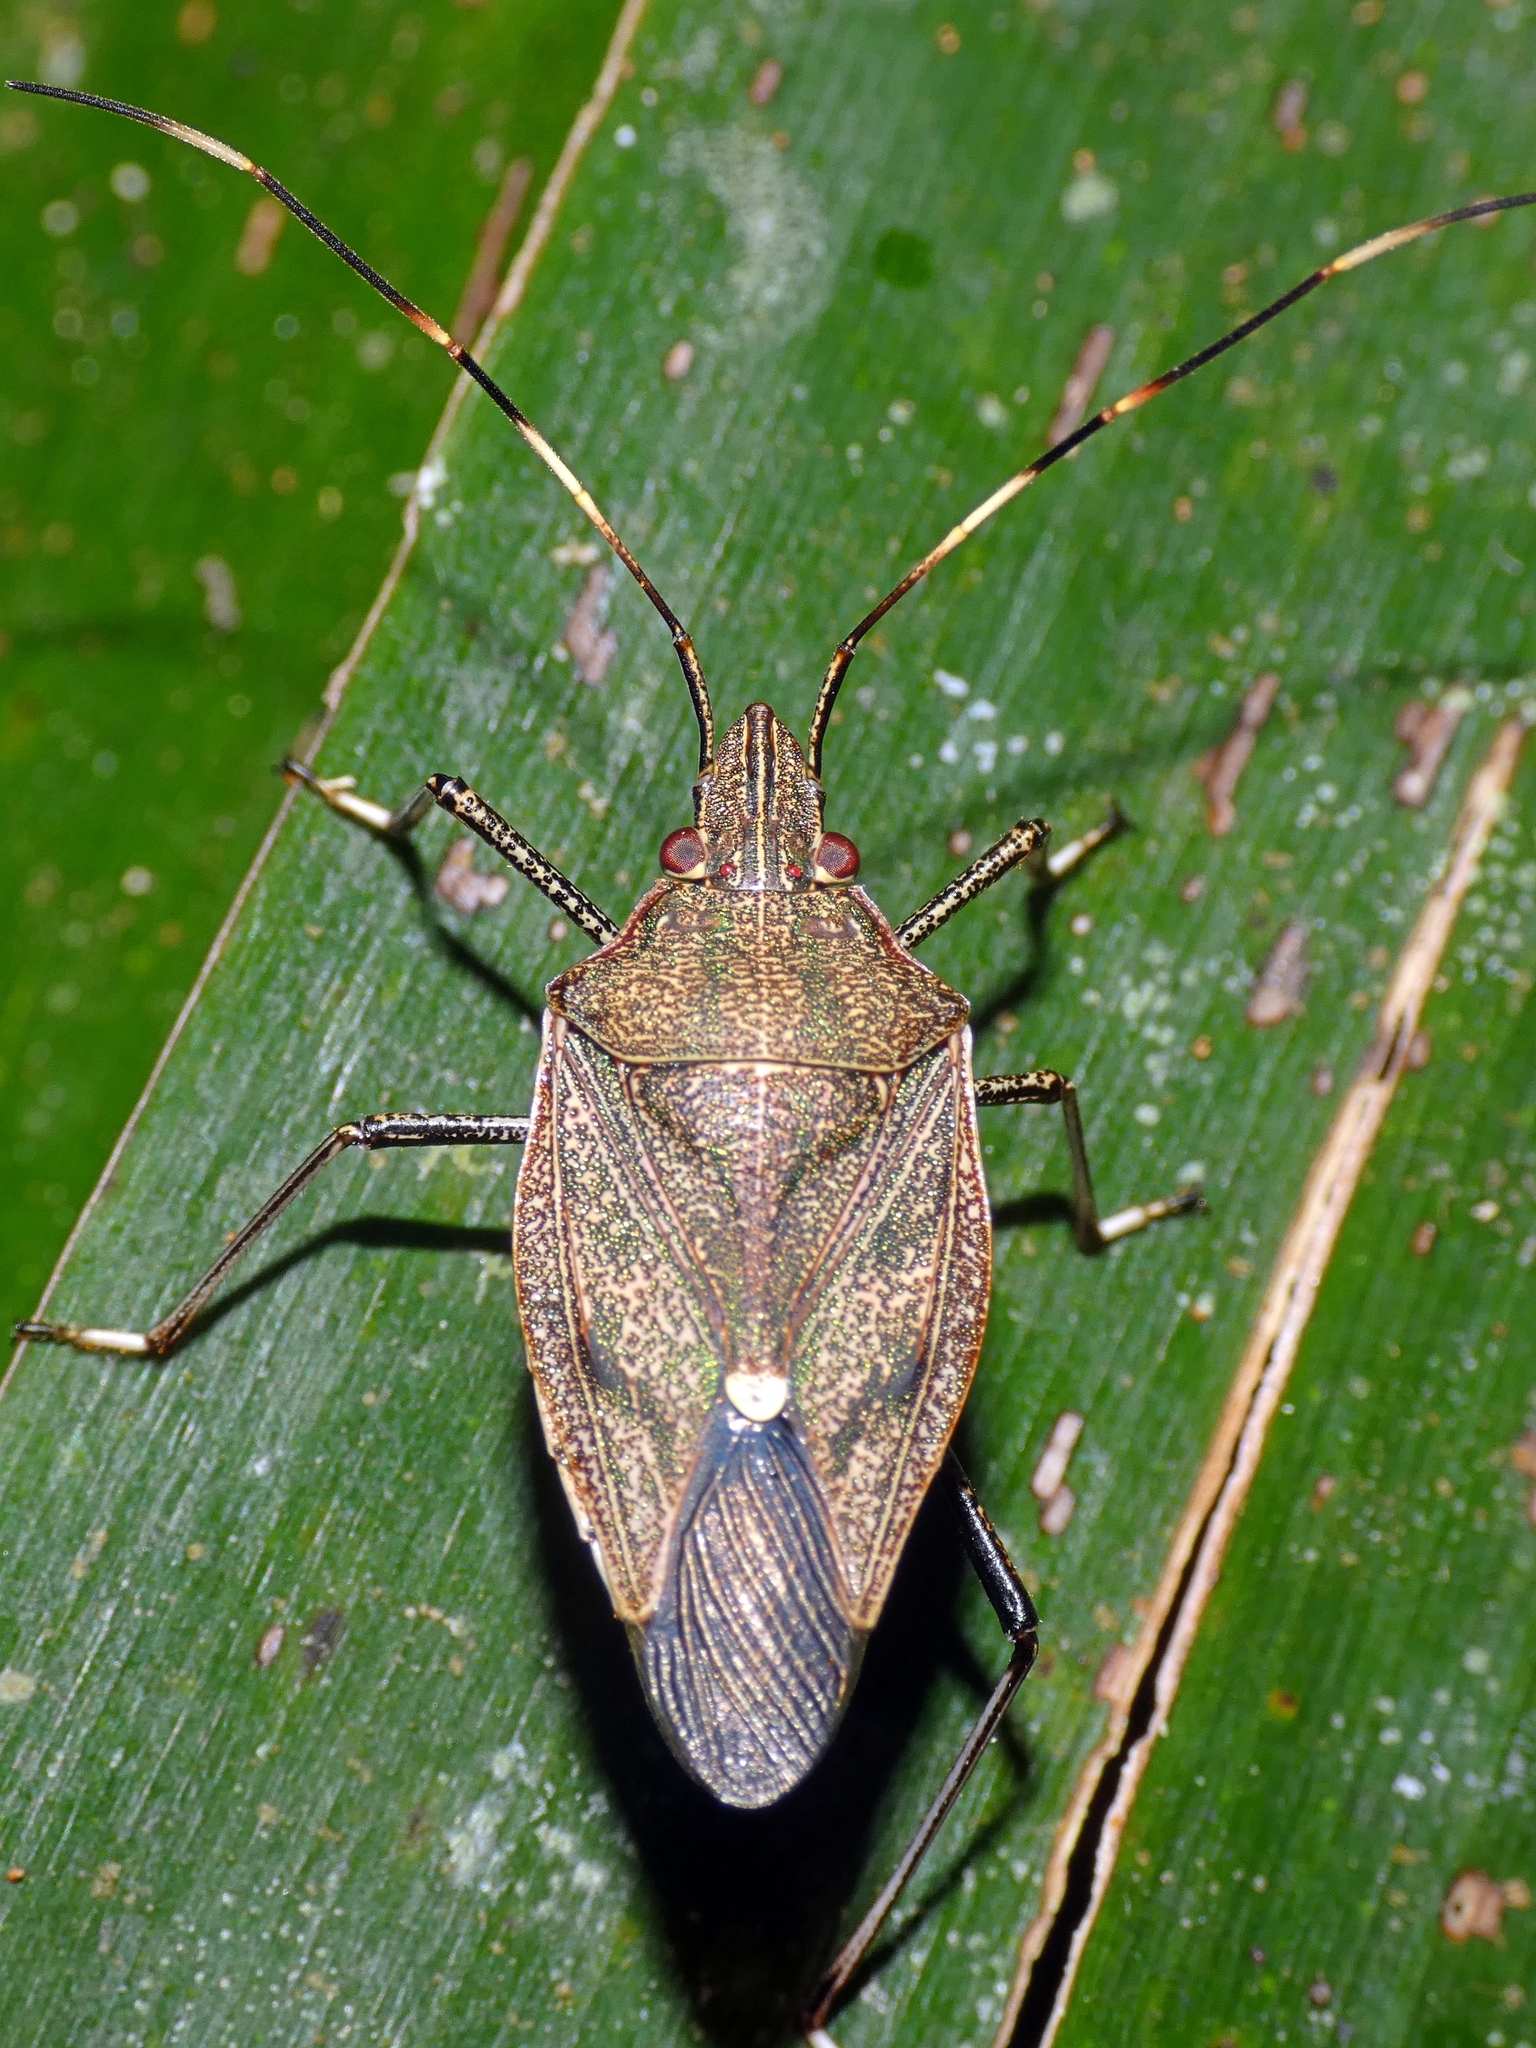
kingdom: Animalia
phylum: Arthropoda
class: Insecta
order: Hemiptera
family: Pentatomidae
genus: Poecilometis
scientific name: Poecilometis
